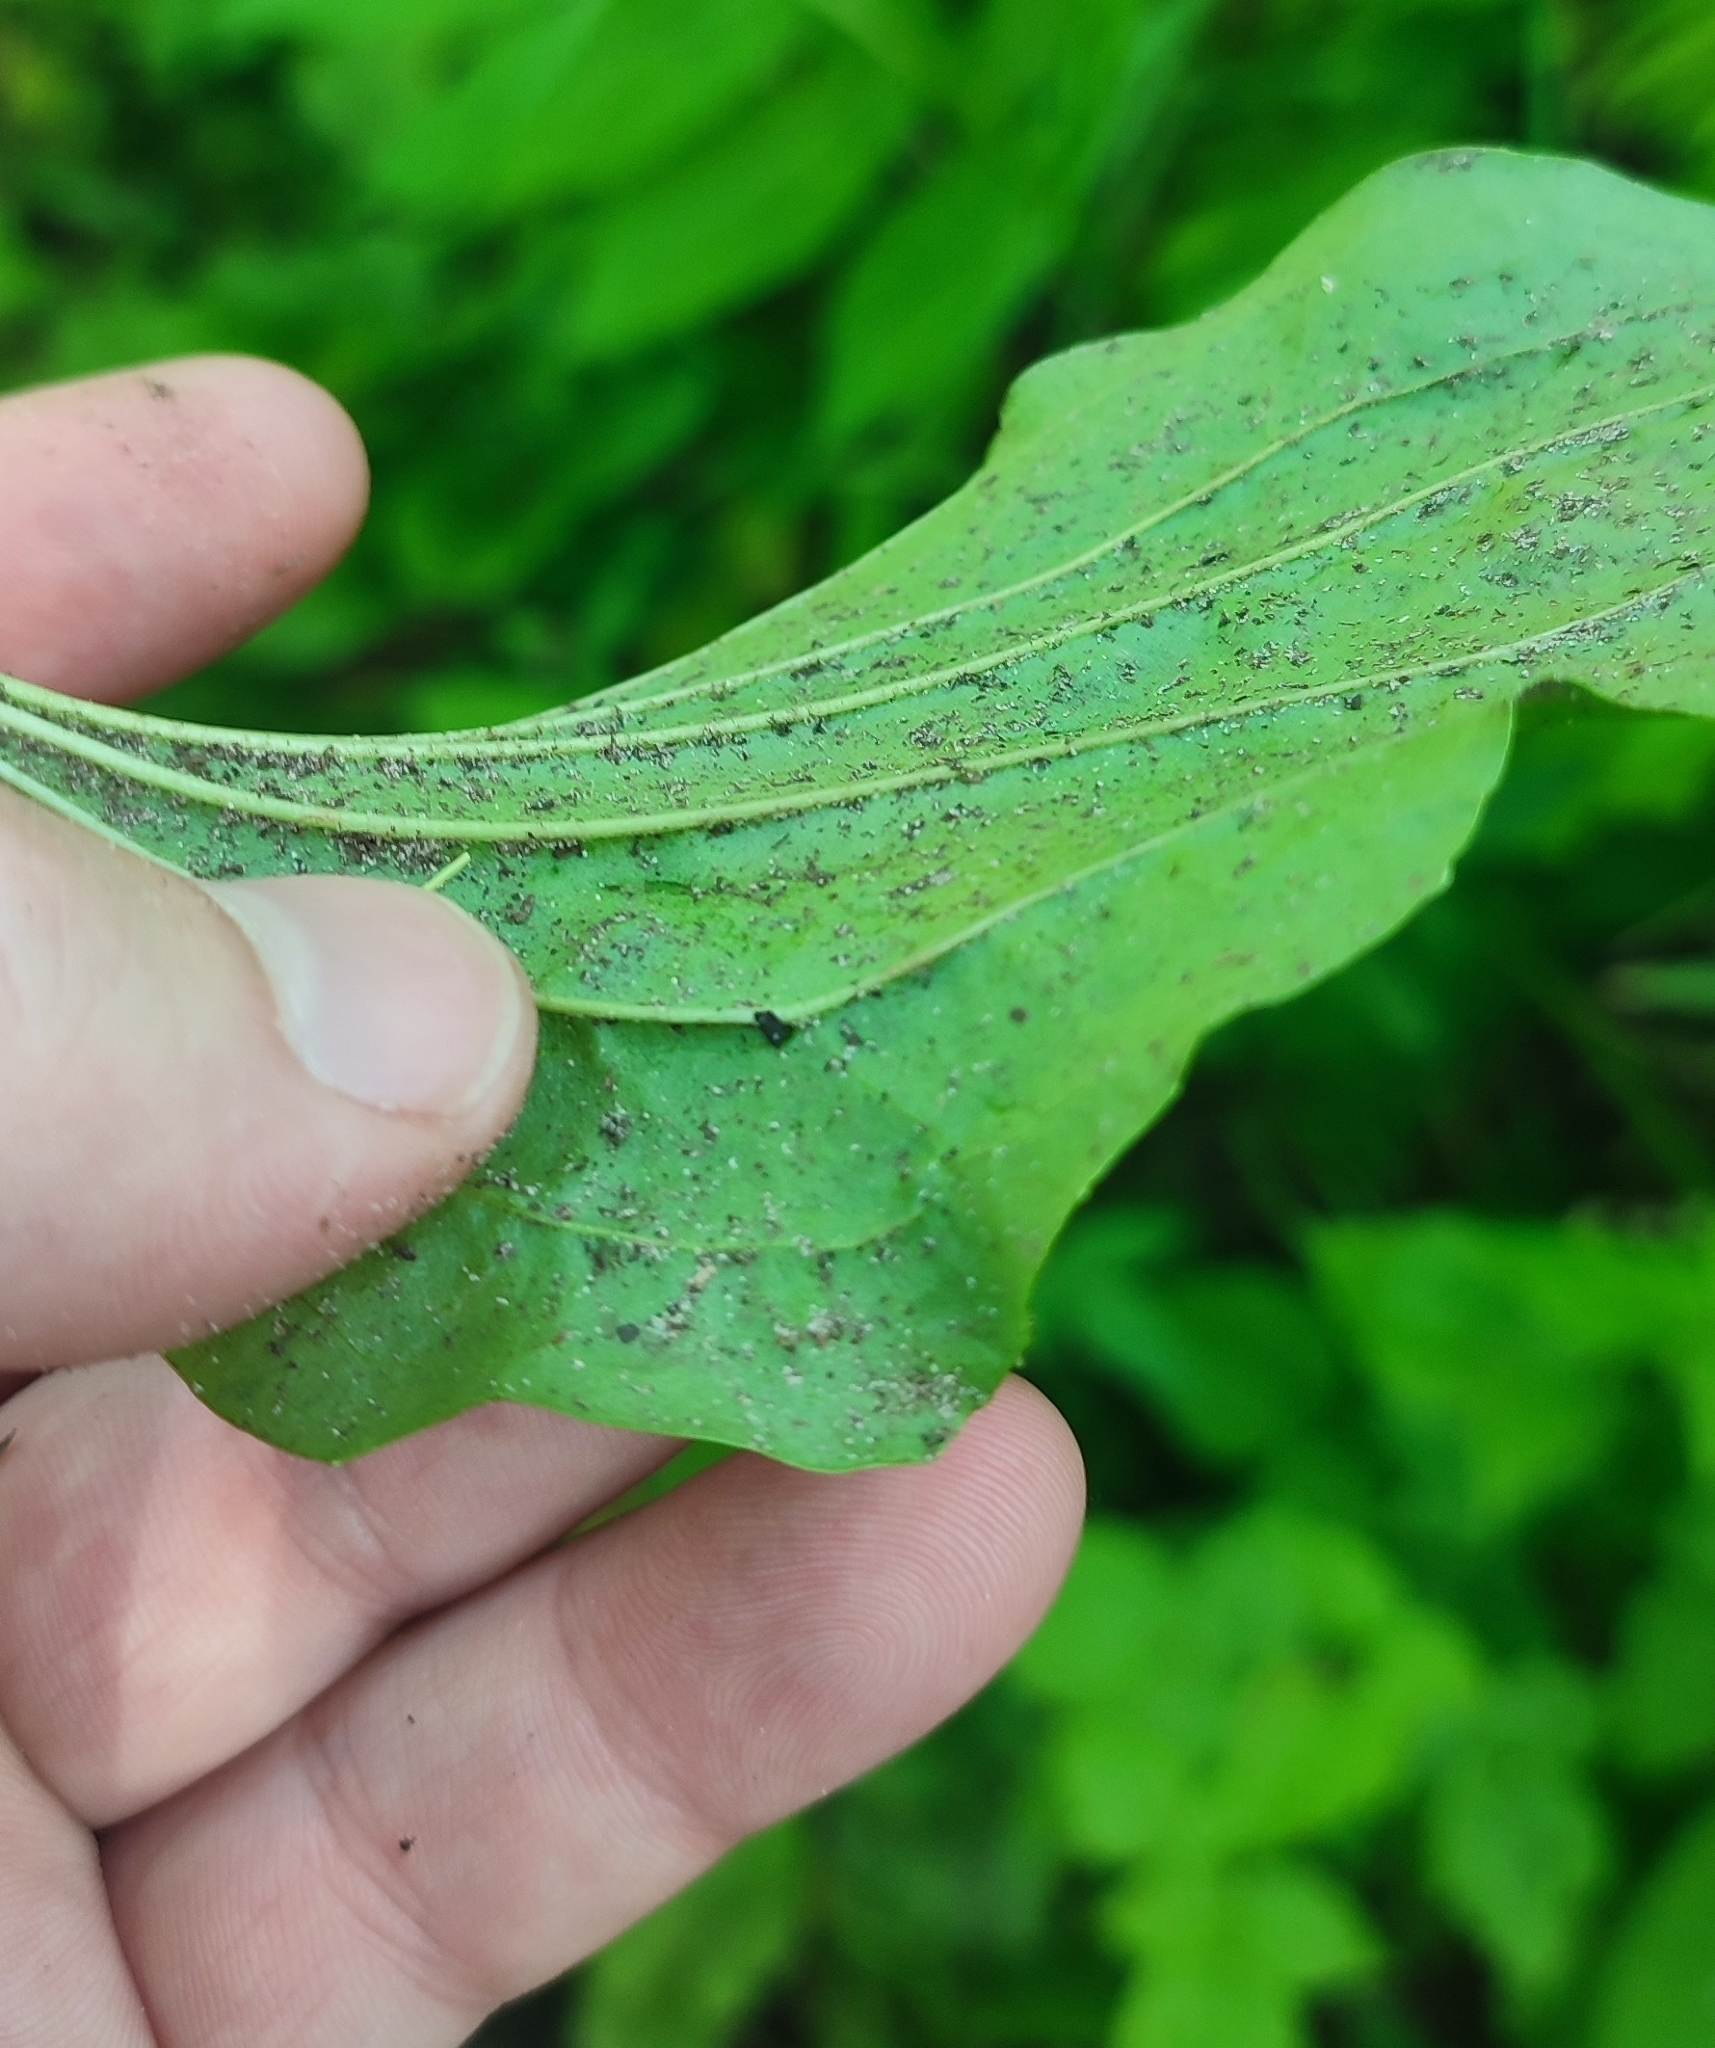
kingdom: Plantae
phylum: Tracheophyta
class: Magnoliopsida
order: Lamiales
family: Plantaginaceae
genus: Plantago
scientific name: Plantago major
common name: Common plantain
